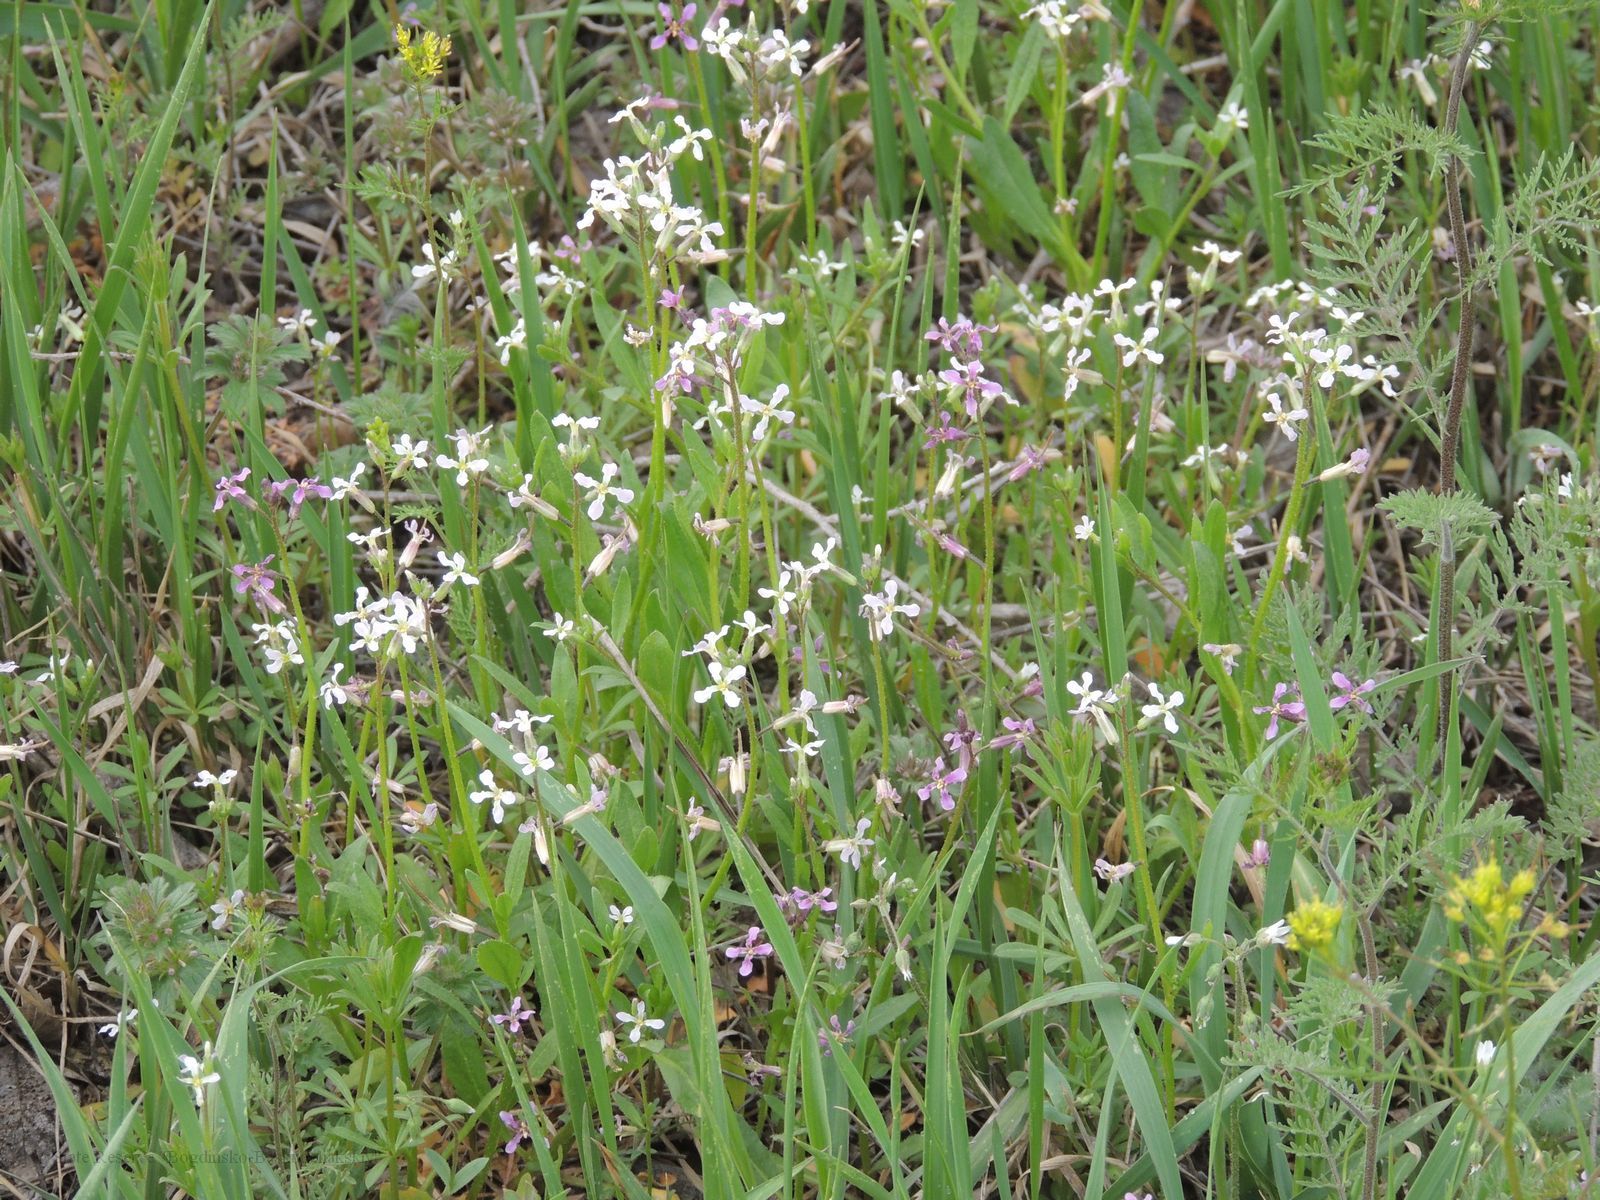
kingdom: Plantae
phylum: Tracheophyta
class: Magnoliopsida
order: Brassicales
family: Brassicaceae
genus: Chorispora
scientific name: Chorispora tenella
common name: Crossflower
